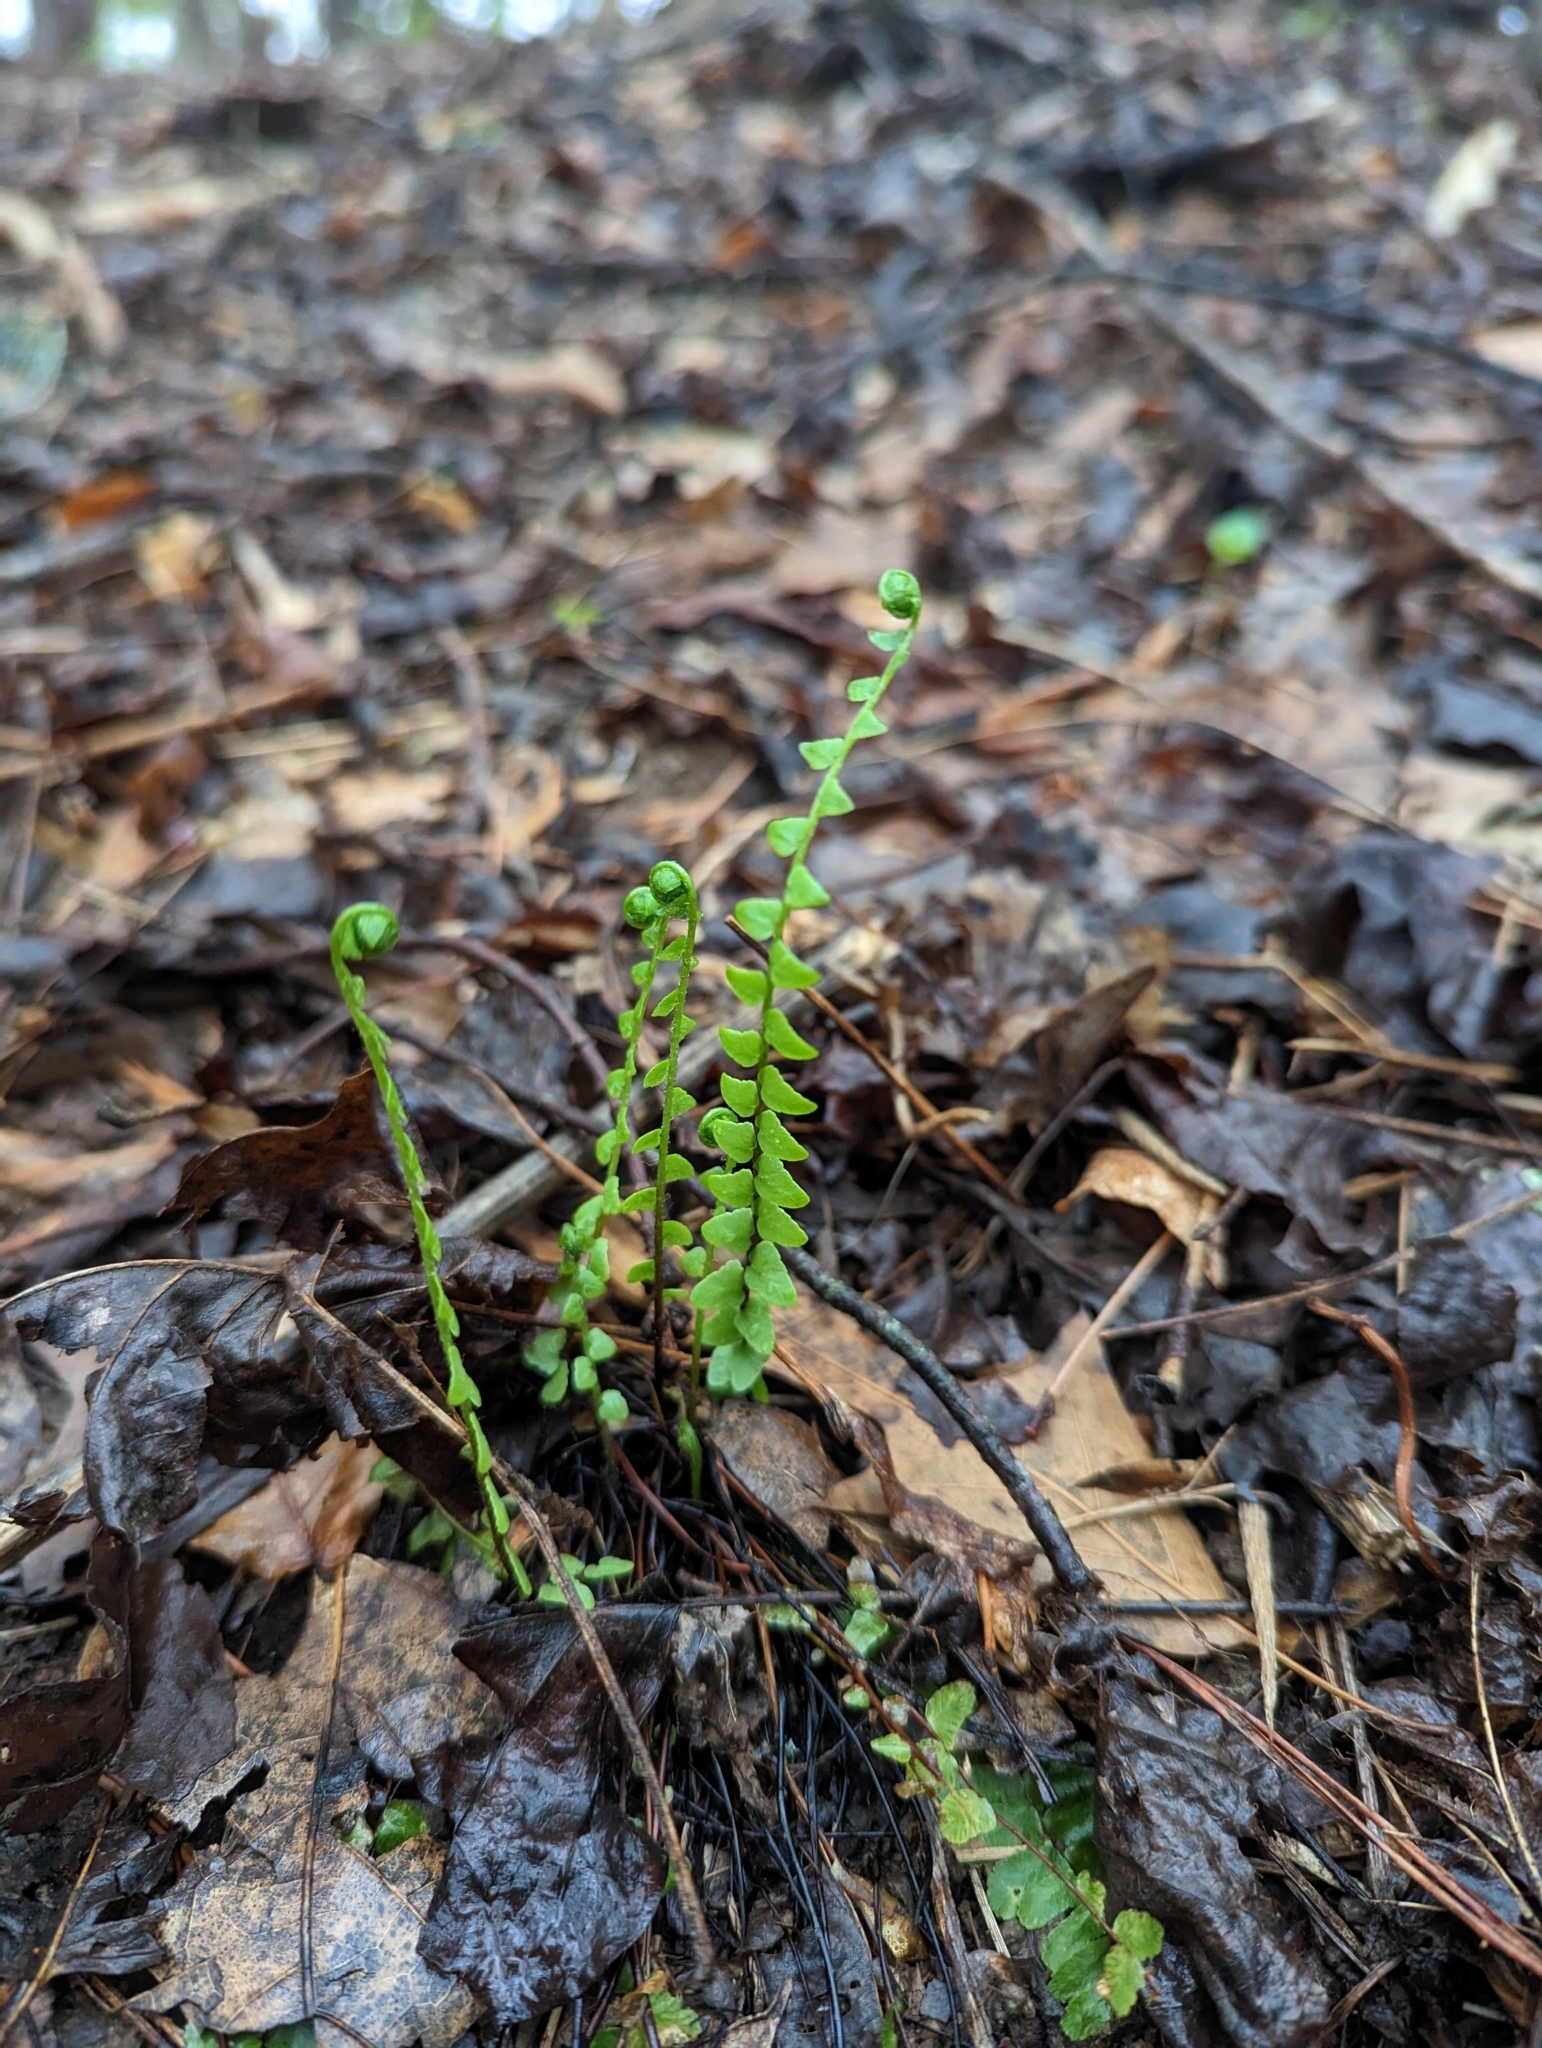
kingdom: Plantae
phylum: Tracheophyta
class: Polypodiopsida
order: Polypodiales
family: Aspleniaceae
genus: Asplenium
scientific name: Asplenium platyneuron
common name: Ebony spleenwort
